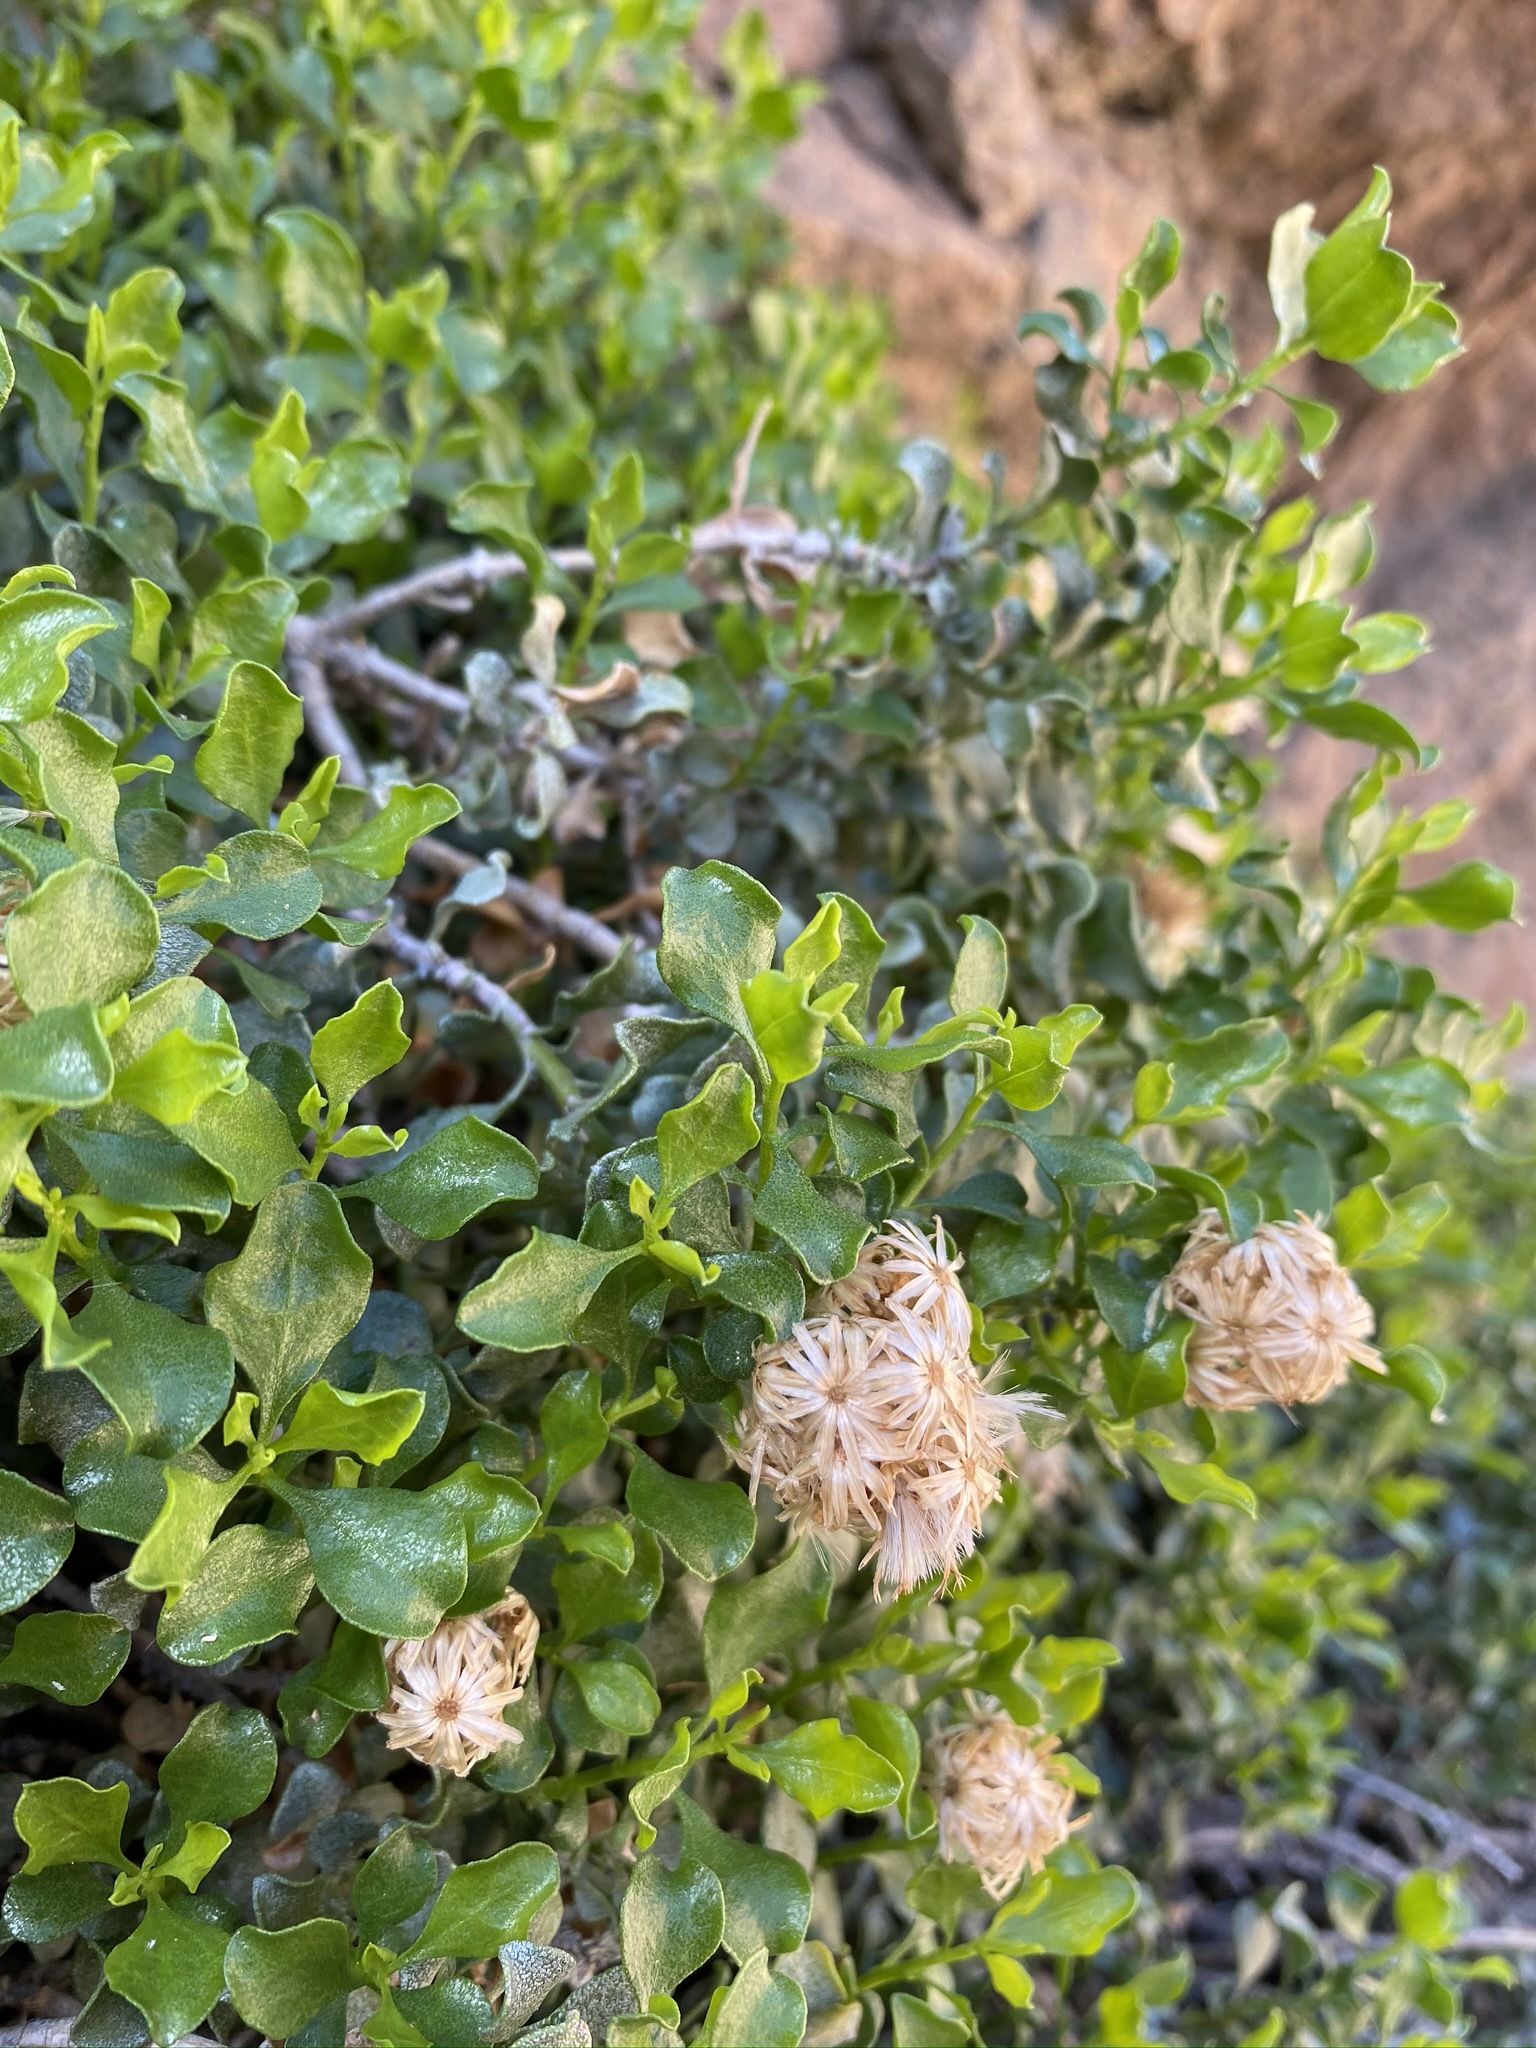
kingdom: Plantae
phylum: Tracheophyta
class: Magnoliopsida
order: Asterales
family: Asteraceae
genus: Ericameria
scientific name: Ericameria cuneata
